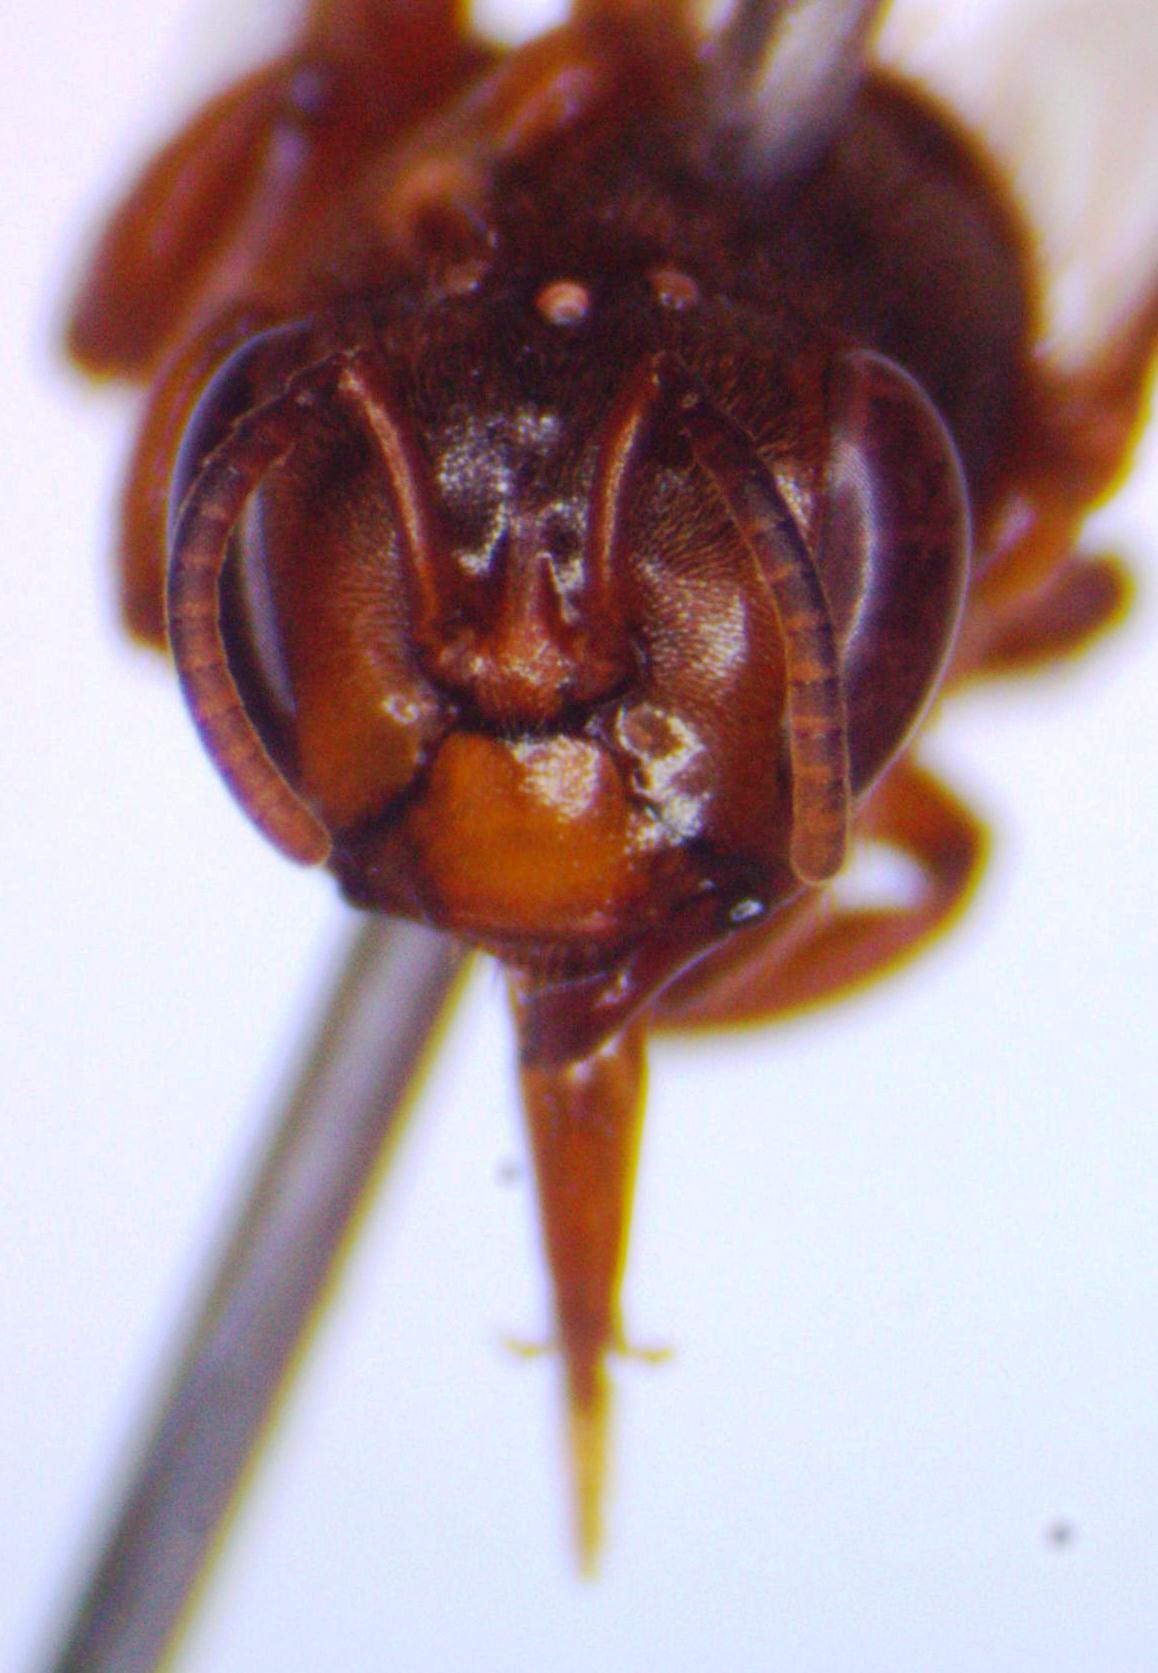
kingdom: Animalia
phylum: Arthropoda
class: Insecta
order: Hymenoptera
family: Apidae
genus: Scaptotrigona
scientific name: Scaptotrigona pectoralis
